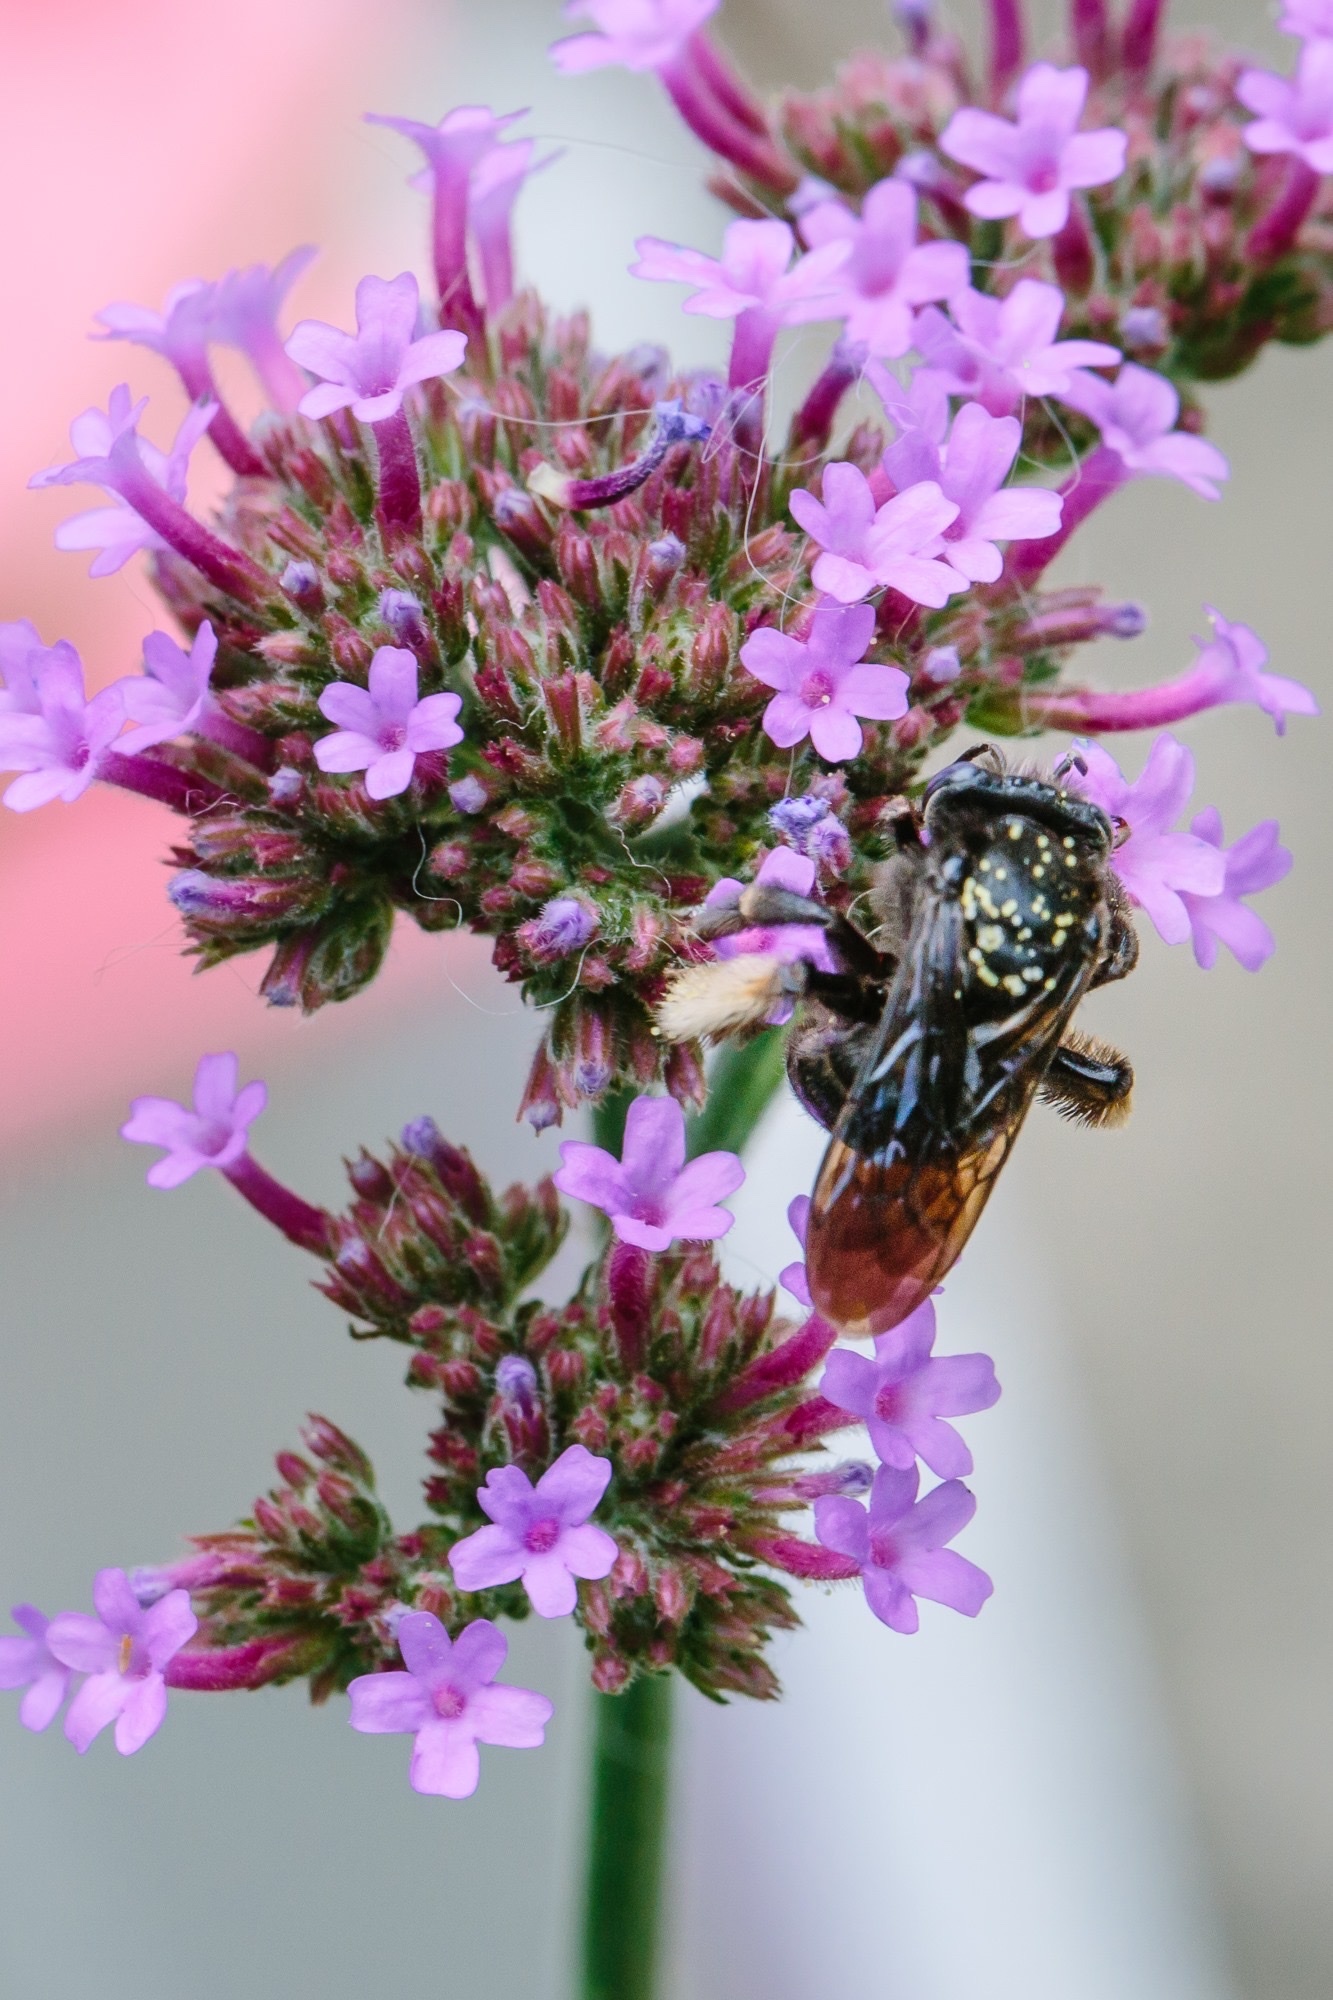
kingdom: Animalia
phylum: Arthropoda
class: Insecta
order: Hymenoptera
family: Apidae
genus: Melissodes
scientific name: Melissodes bimaculatus
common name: Two-spotted long-horned bee
